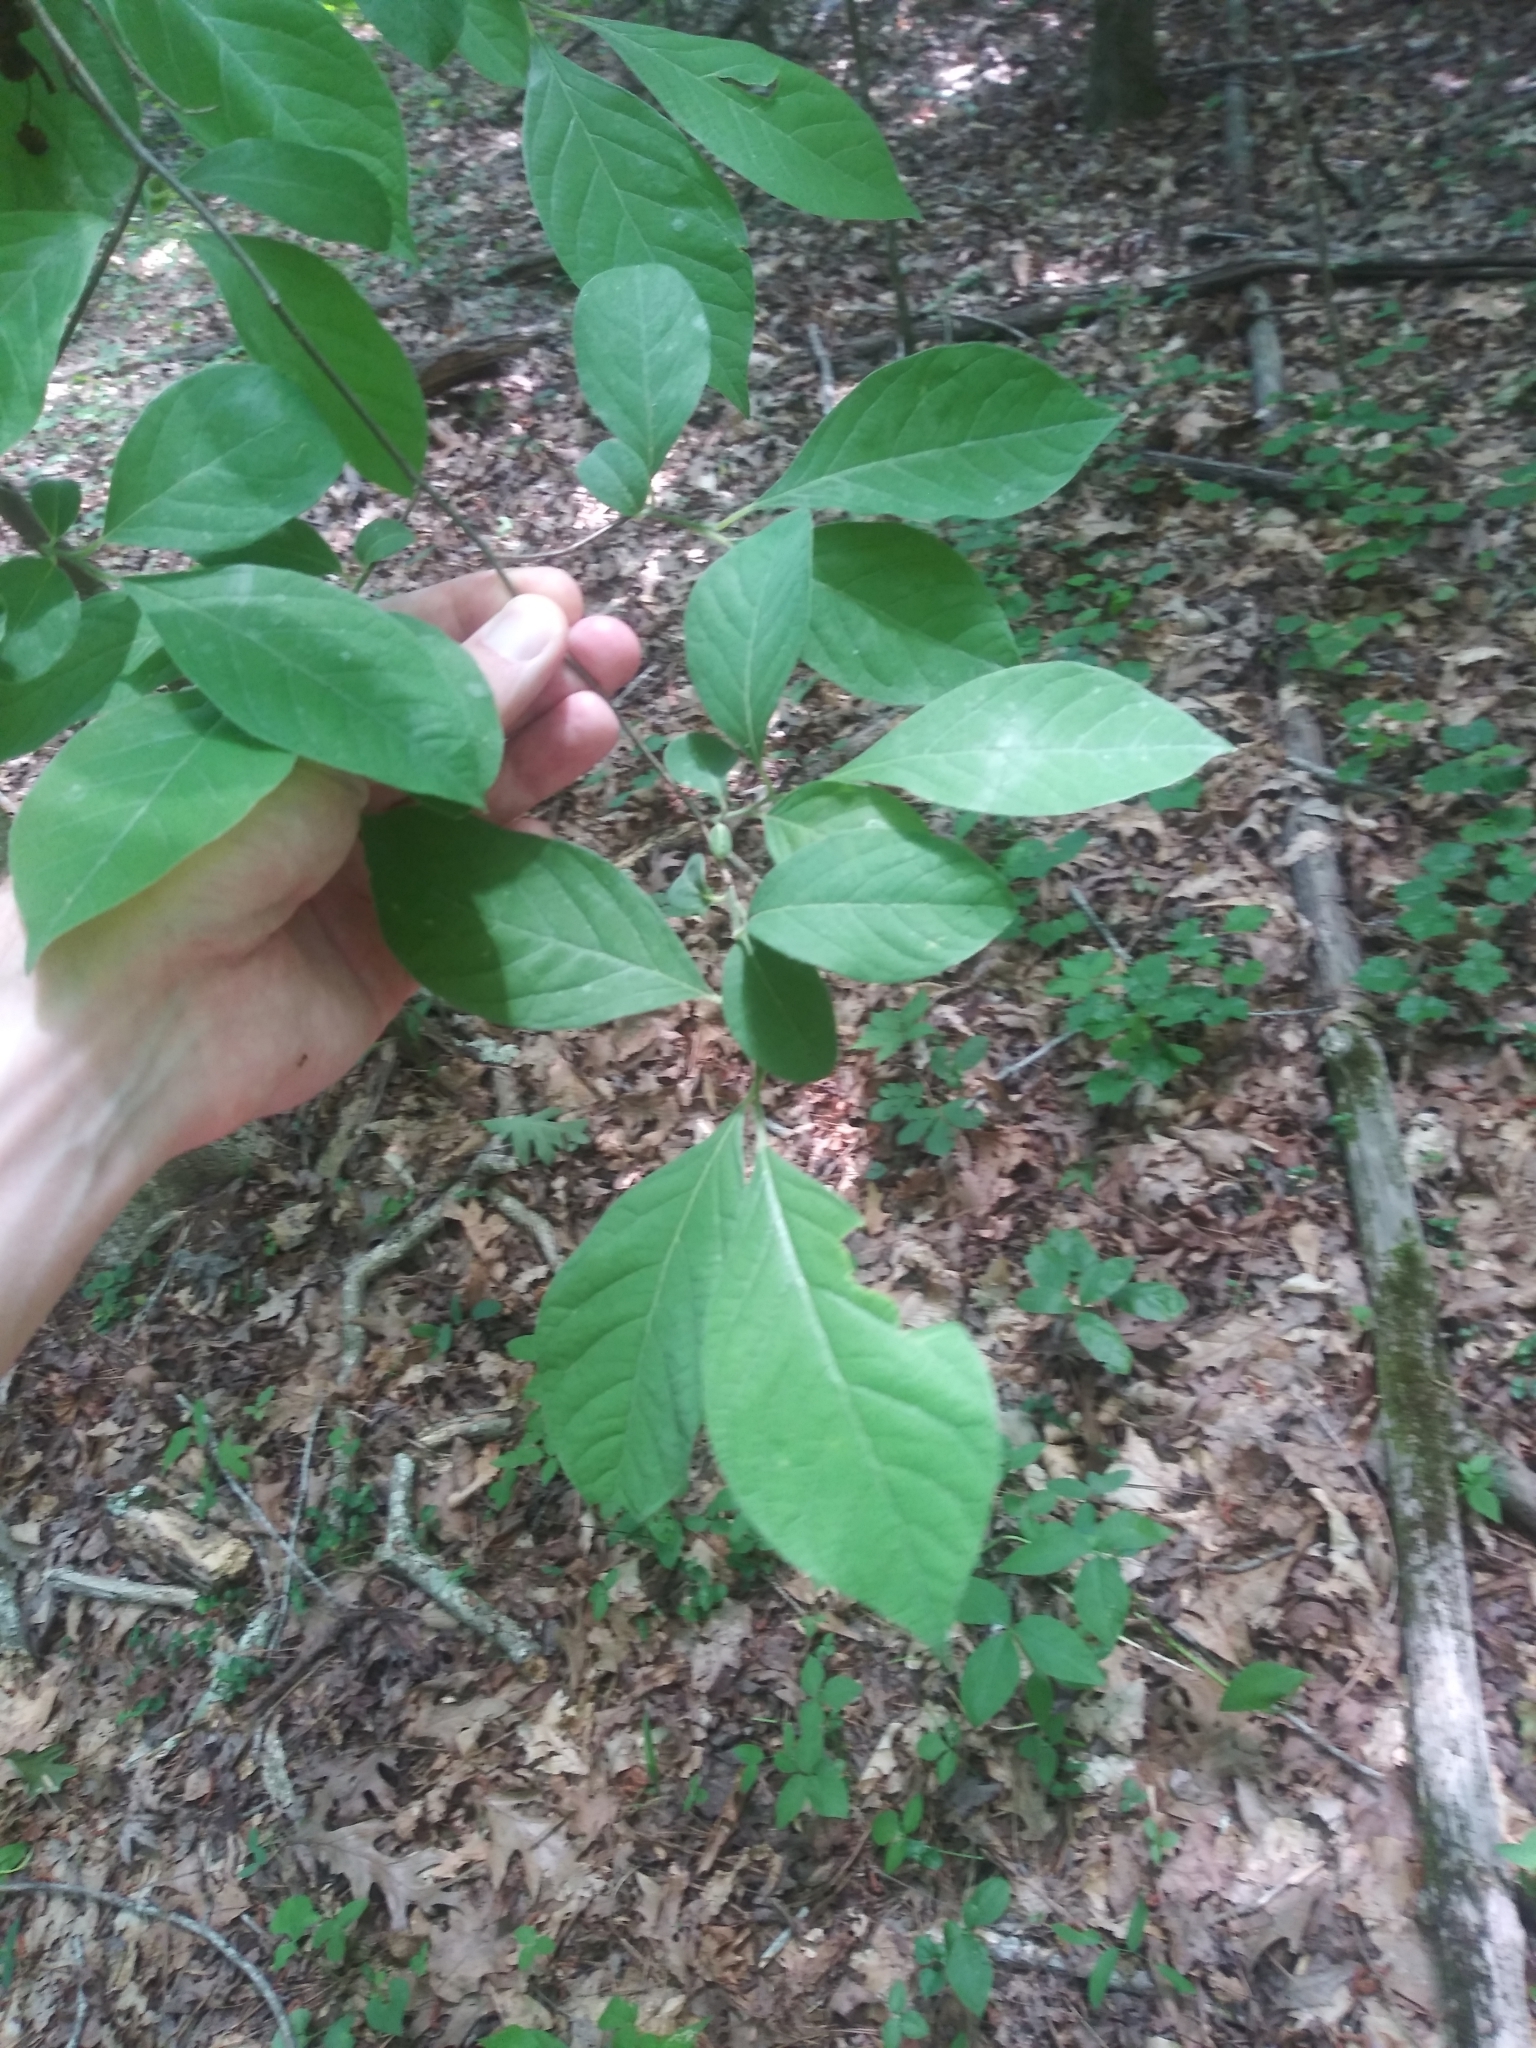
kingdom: Plantae
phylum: Tracheophyta
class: Magnoliopsida
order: Laurales
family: Lauraceae
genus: Lindera
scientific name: Lindera benzoin
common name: Spicebush
